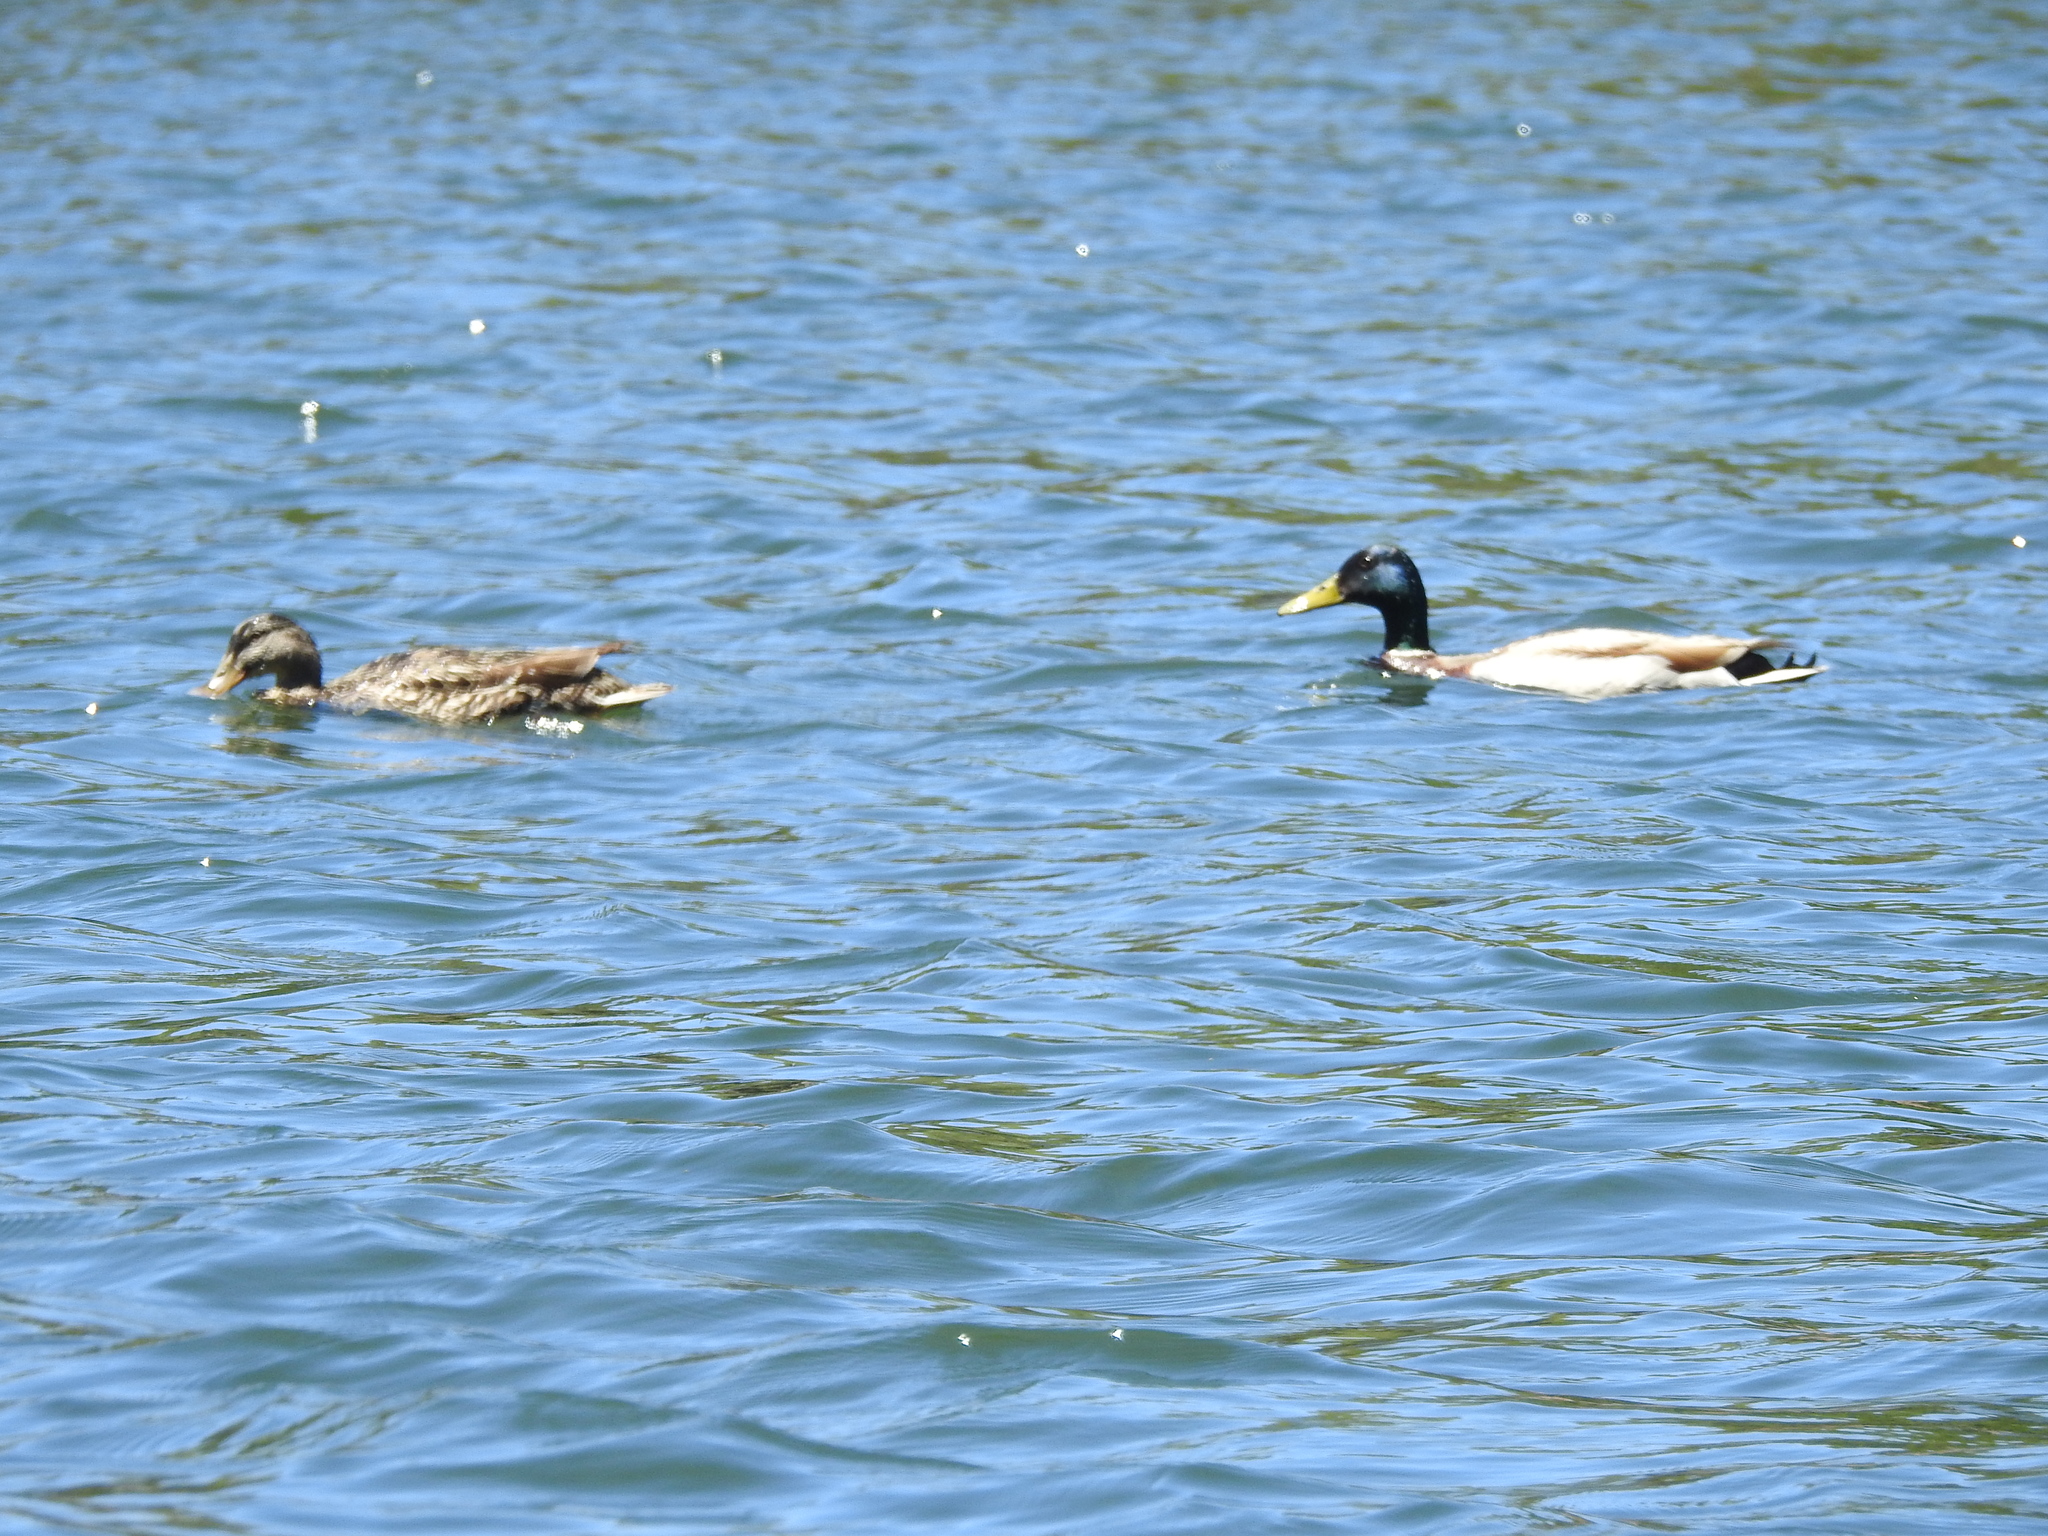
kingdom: Animalia
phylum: Chordata
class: Aves
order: Anseriformes
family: Anatidae
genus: Anas
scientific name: Anas platyrhynchos
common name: Mallard
